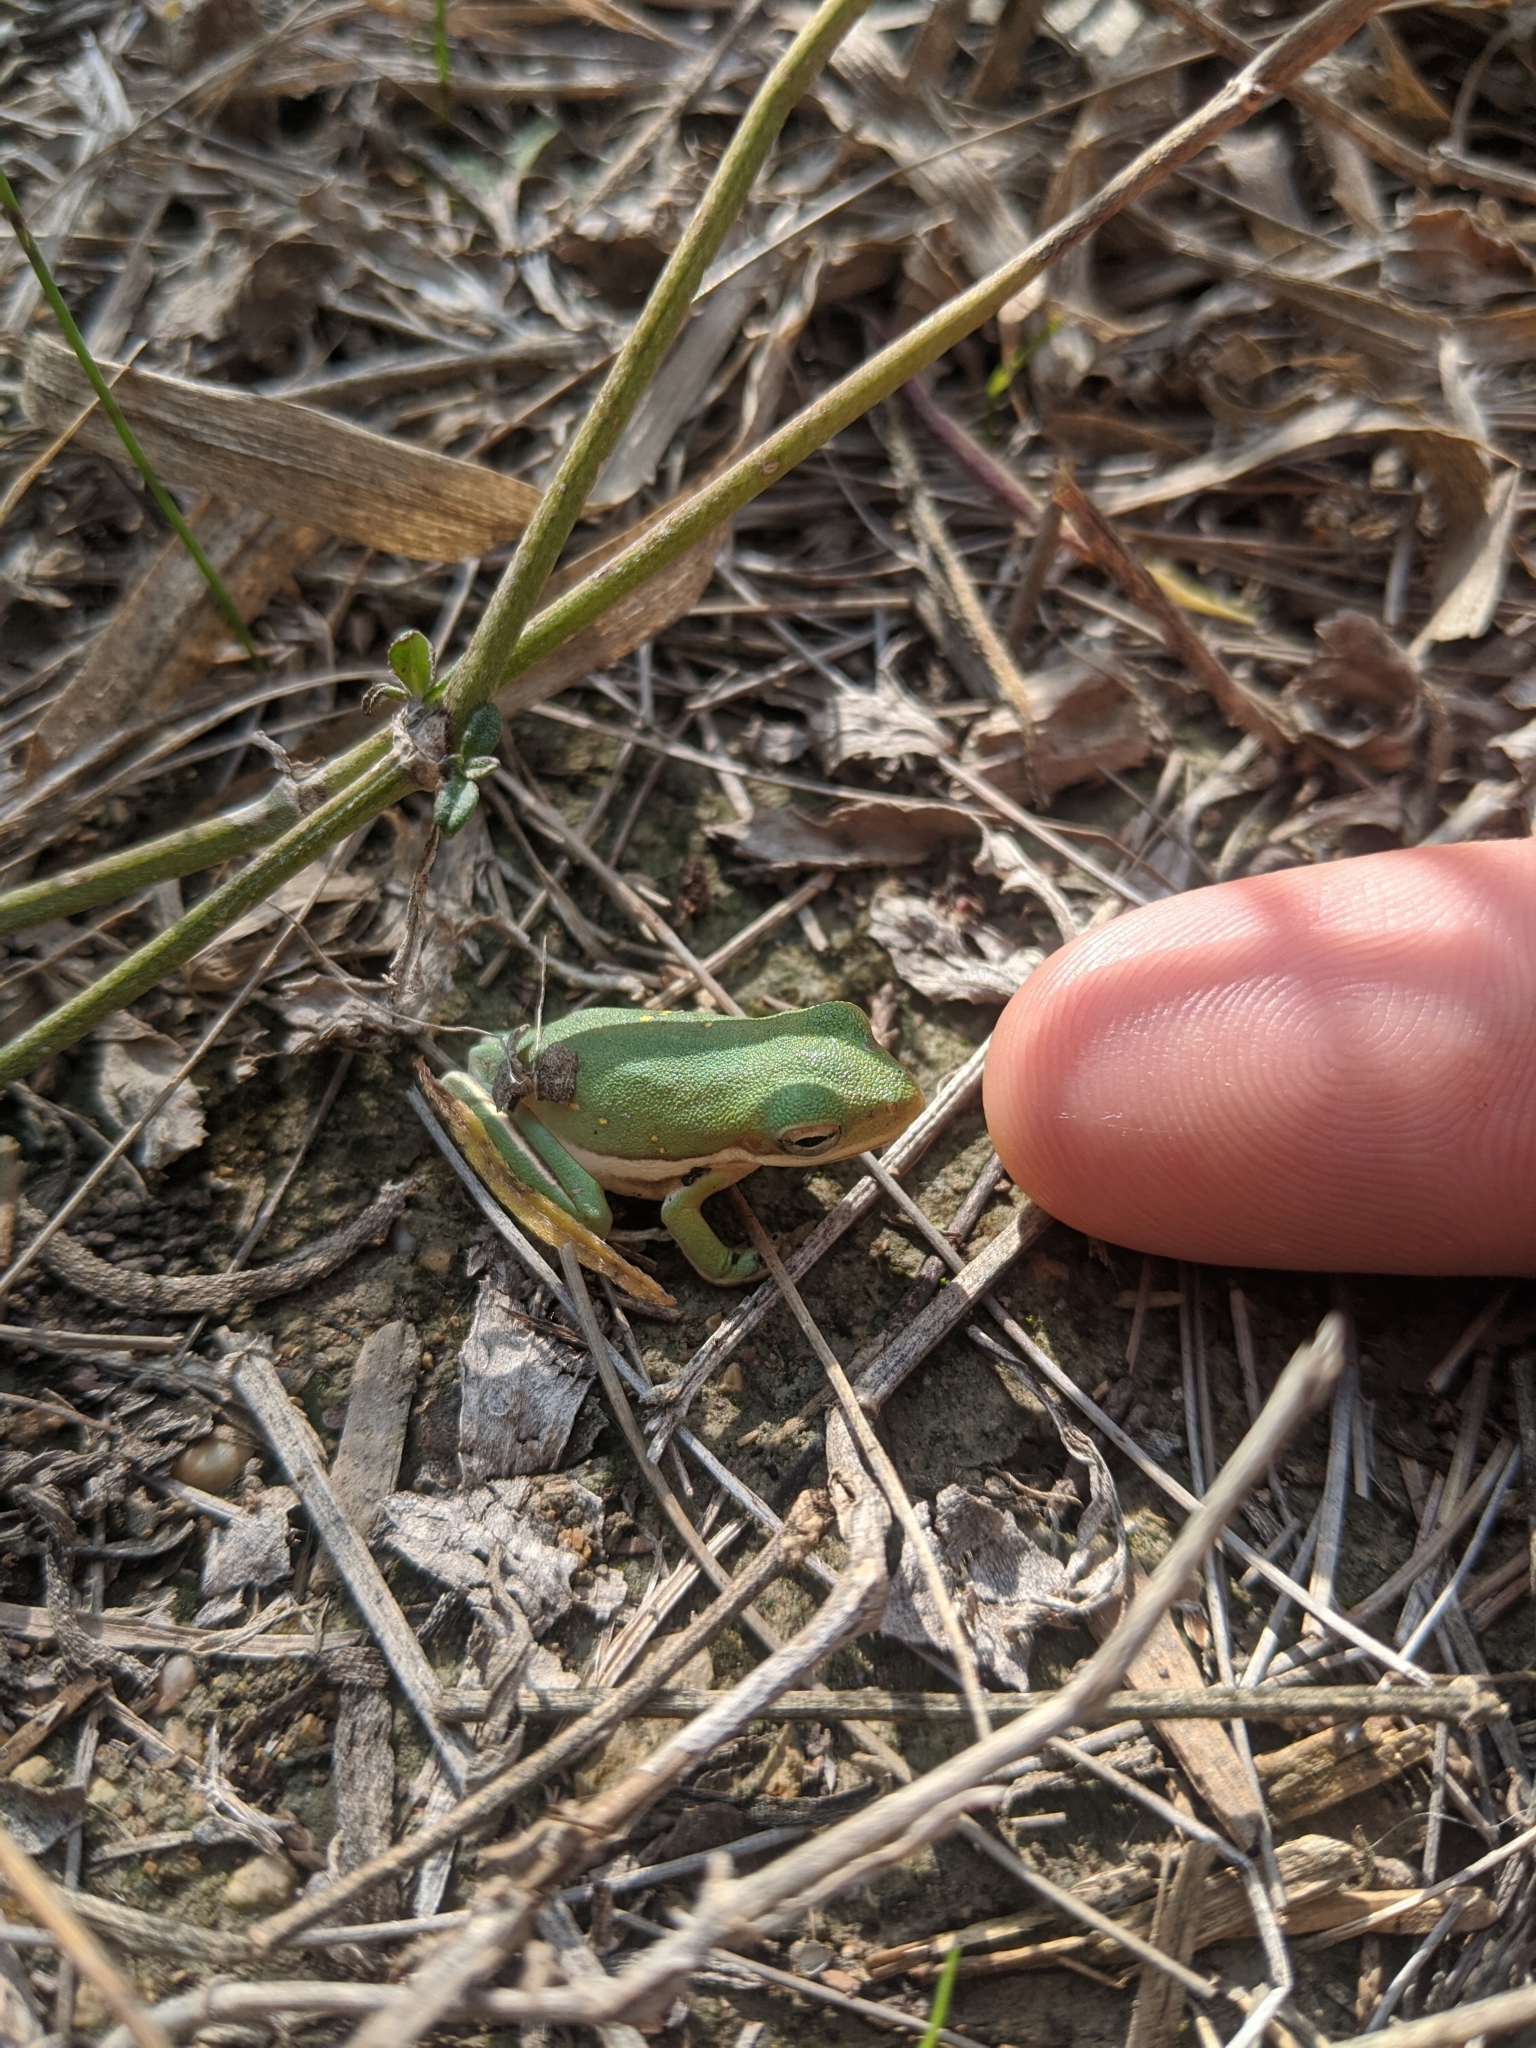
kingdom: Animalia
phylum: Chordata
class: Amphibia
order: Anura
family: Hylidae
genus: Dryophytes
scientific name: Dryophytes cinereus
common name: Green treefrog
